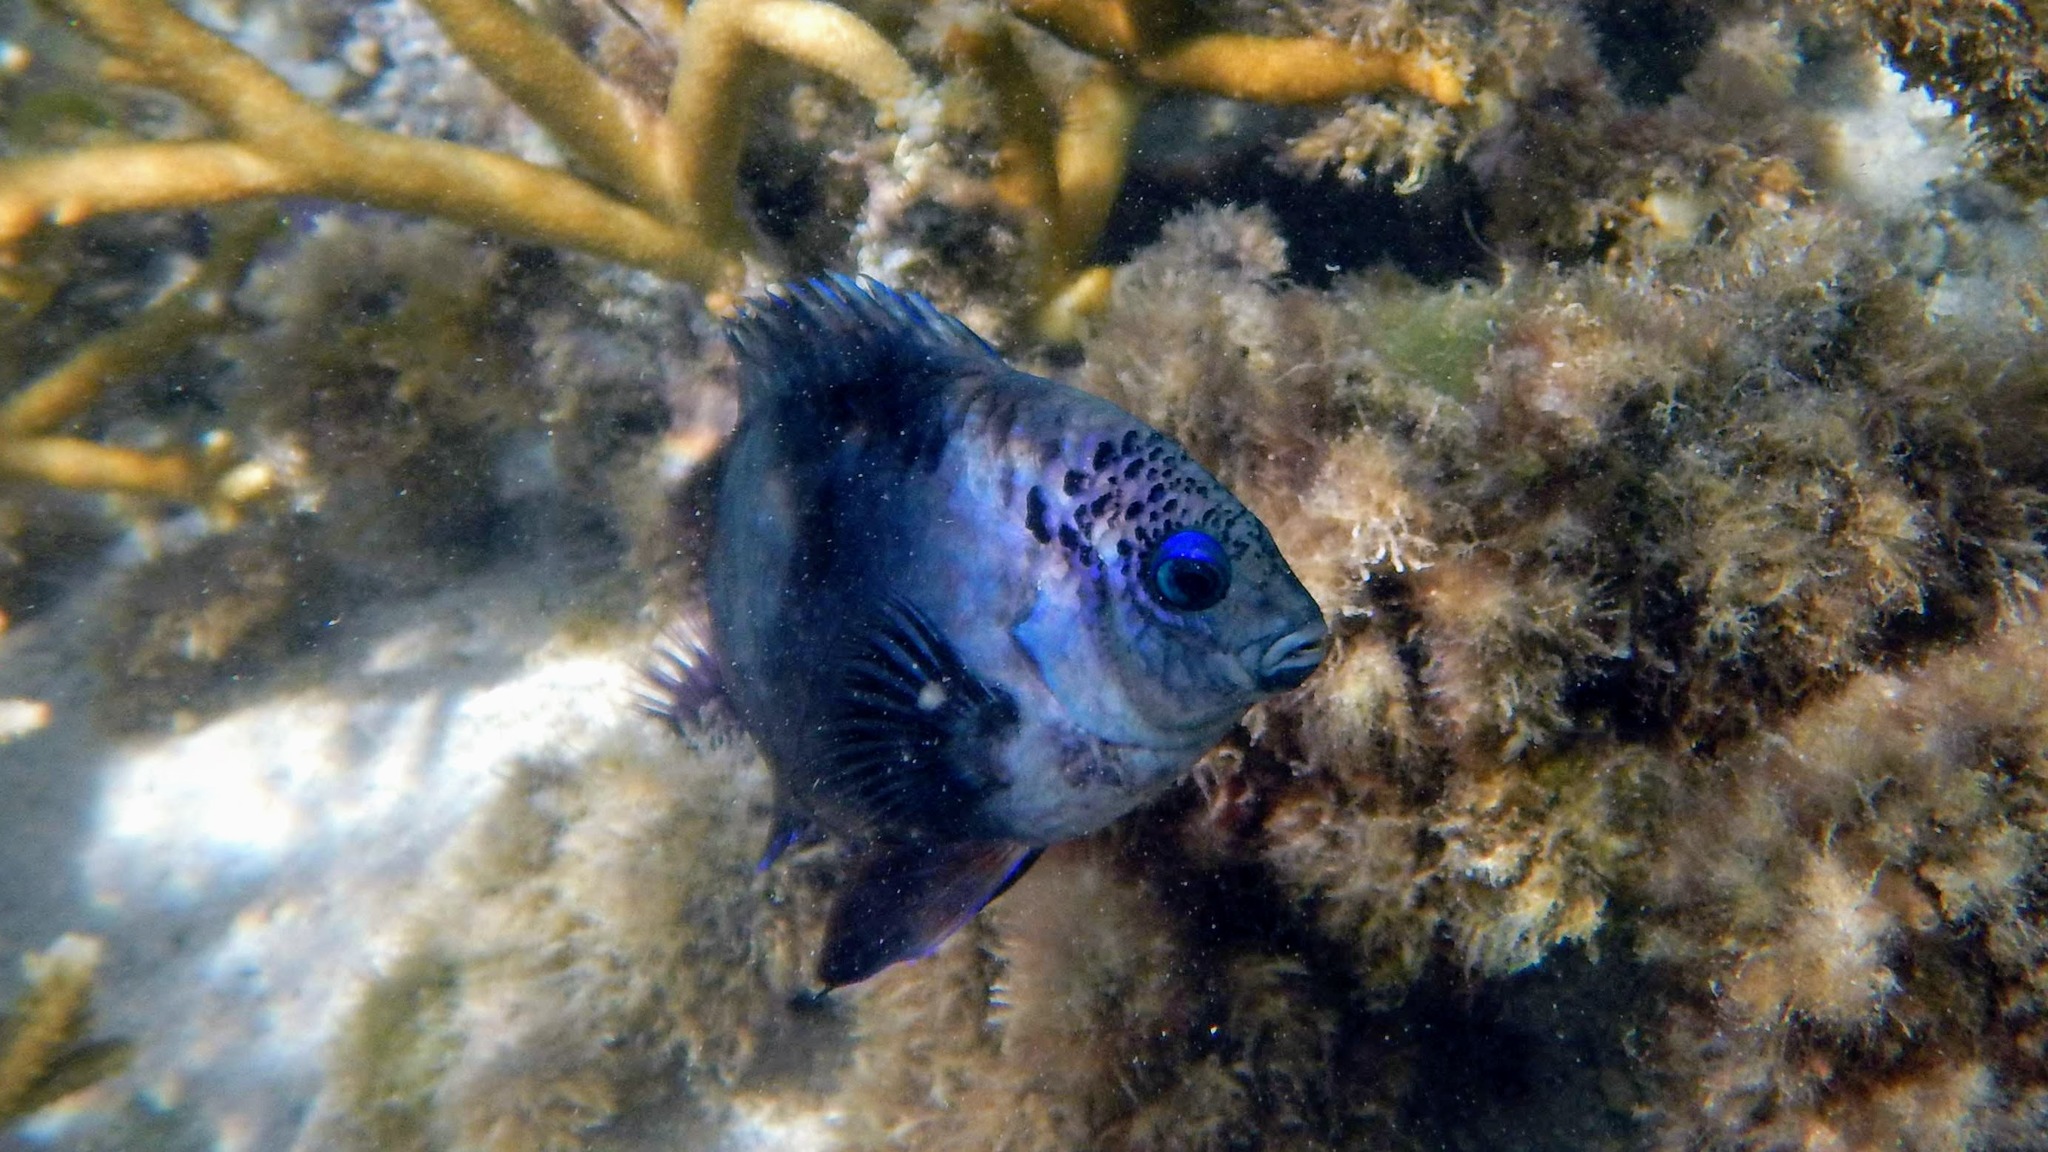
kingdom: Animalia
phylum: Chordata
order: Perciformes
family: Pomacentridae
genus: Stegastes
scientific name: Stegastes limbatus
